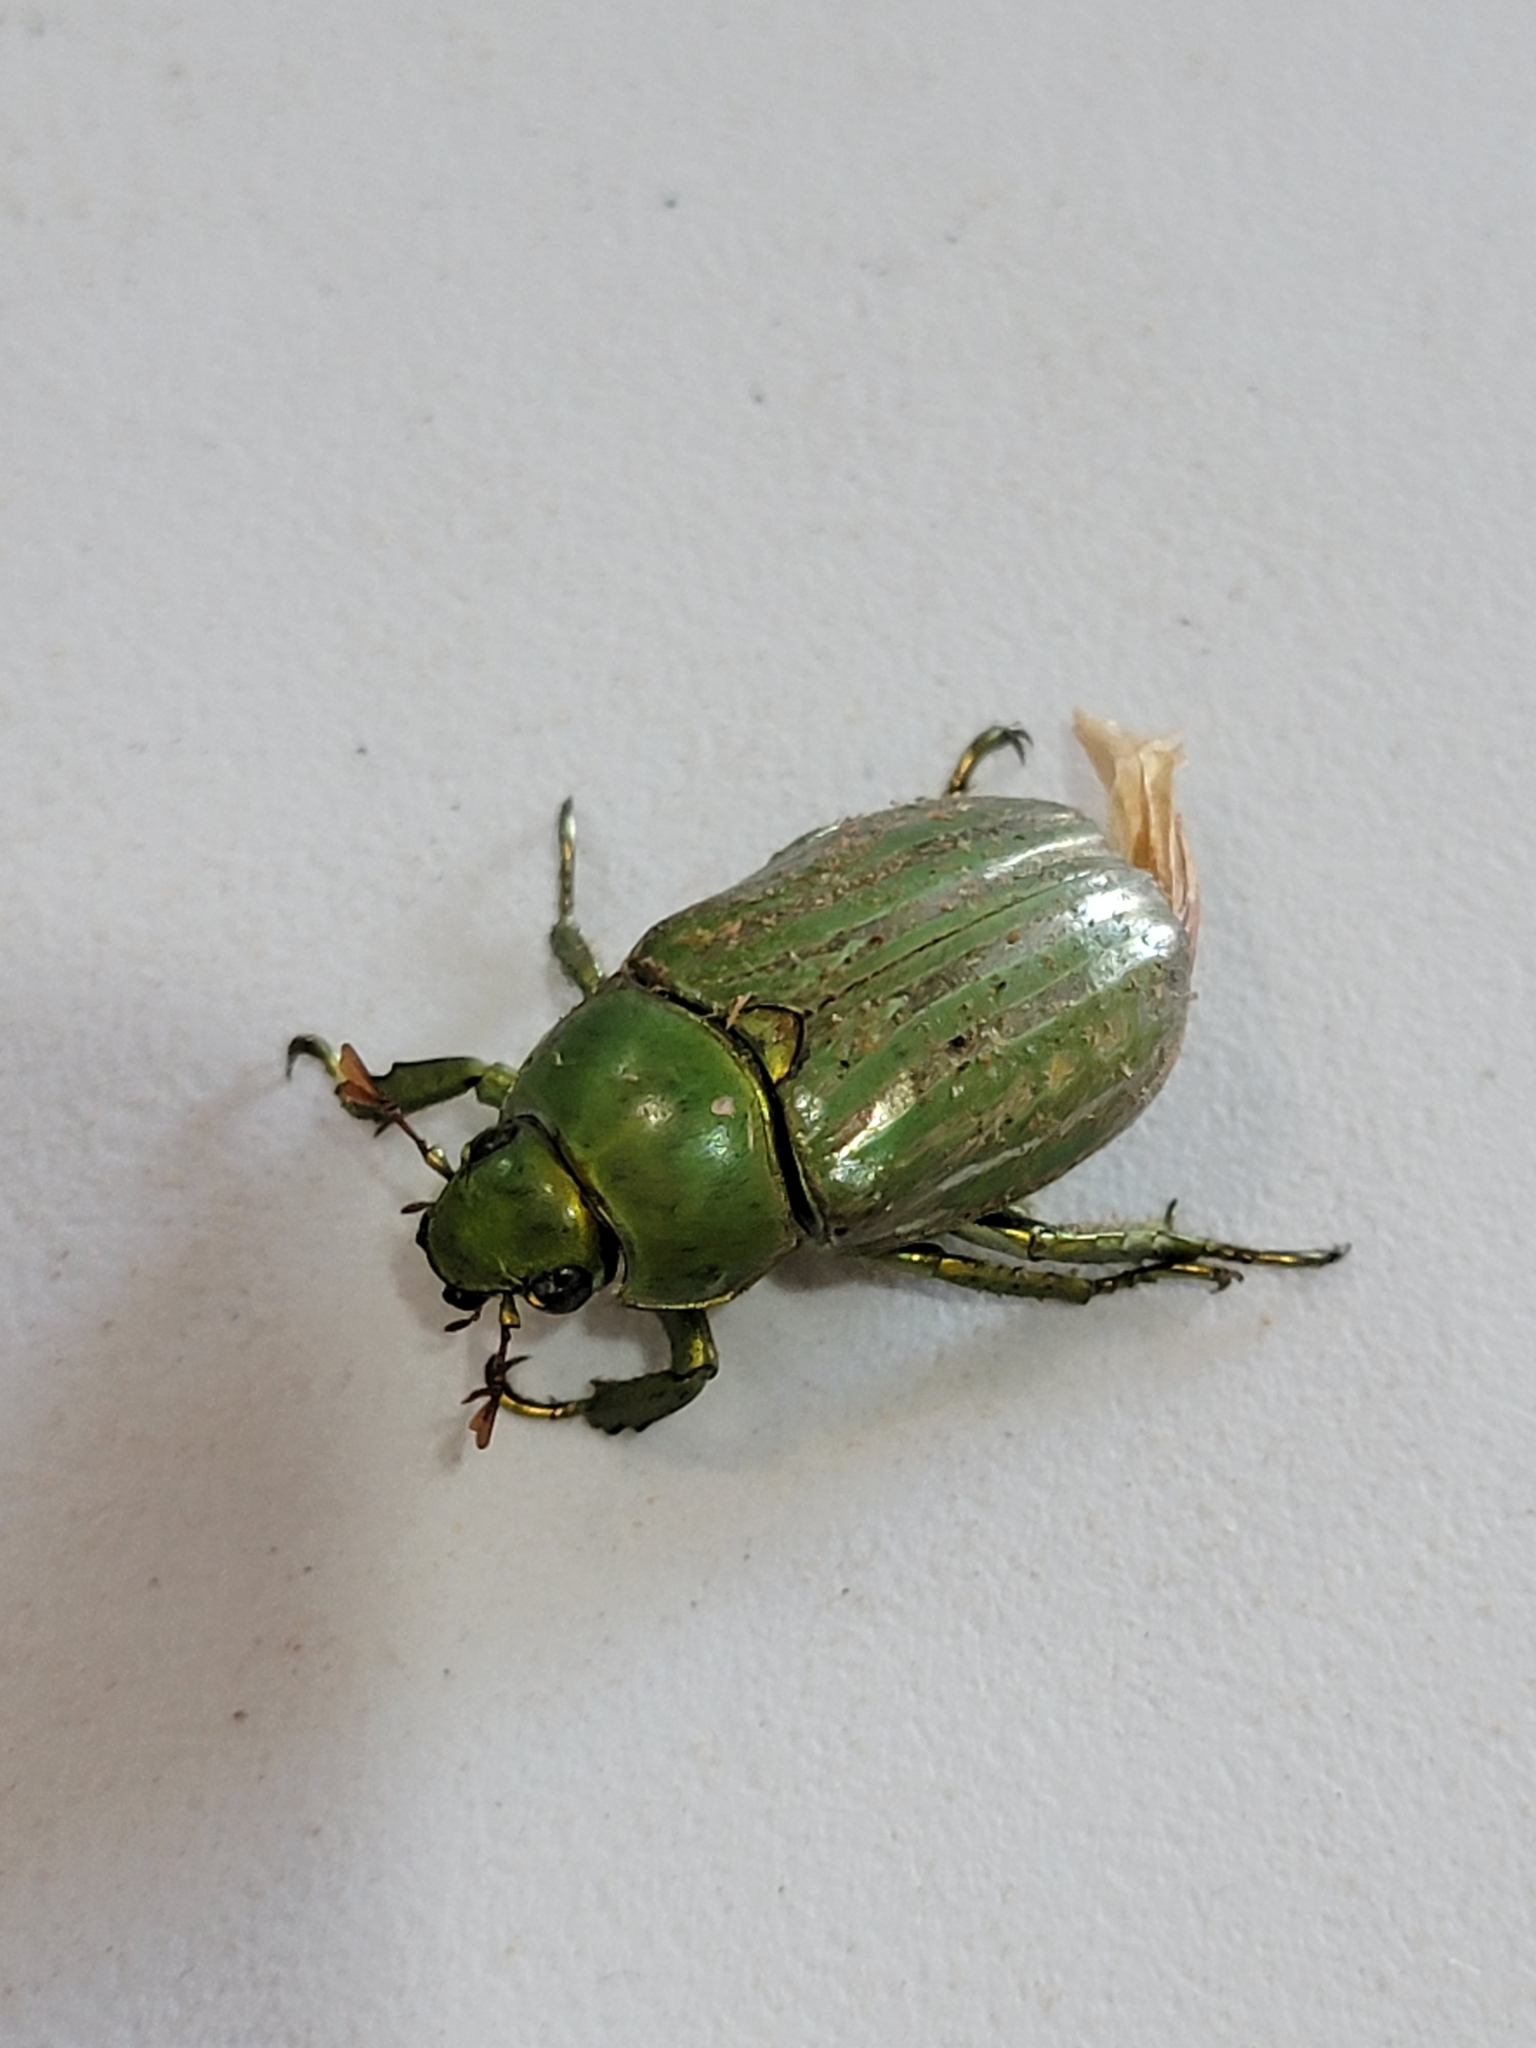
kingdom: Animalia
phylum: Arthropoda
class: Insecta
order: Coleoptera
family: Scarabaeidae
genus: Chrysina
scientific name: Chrysina gloriosa
